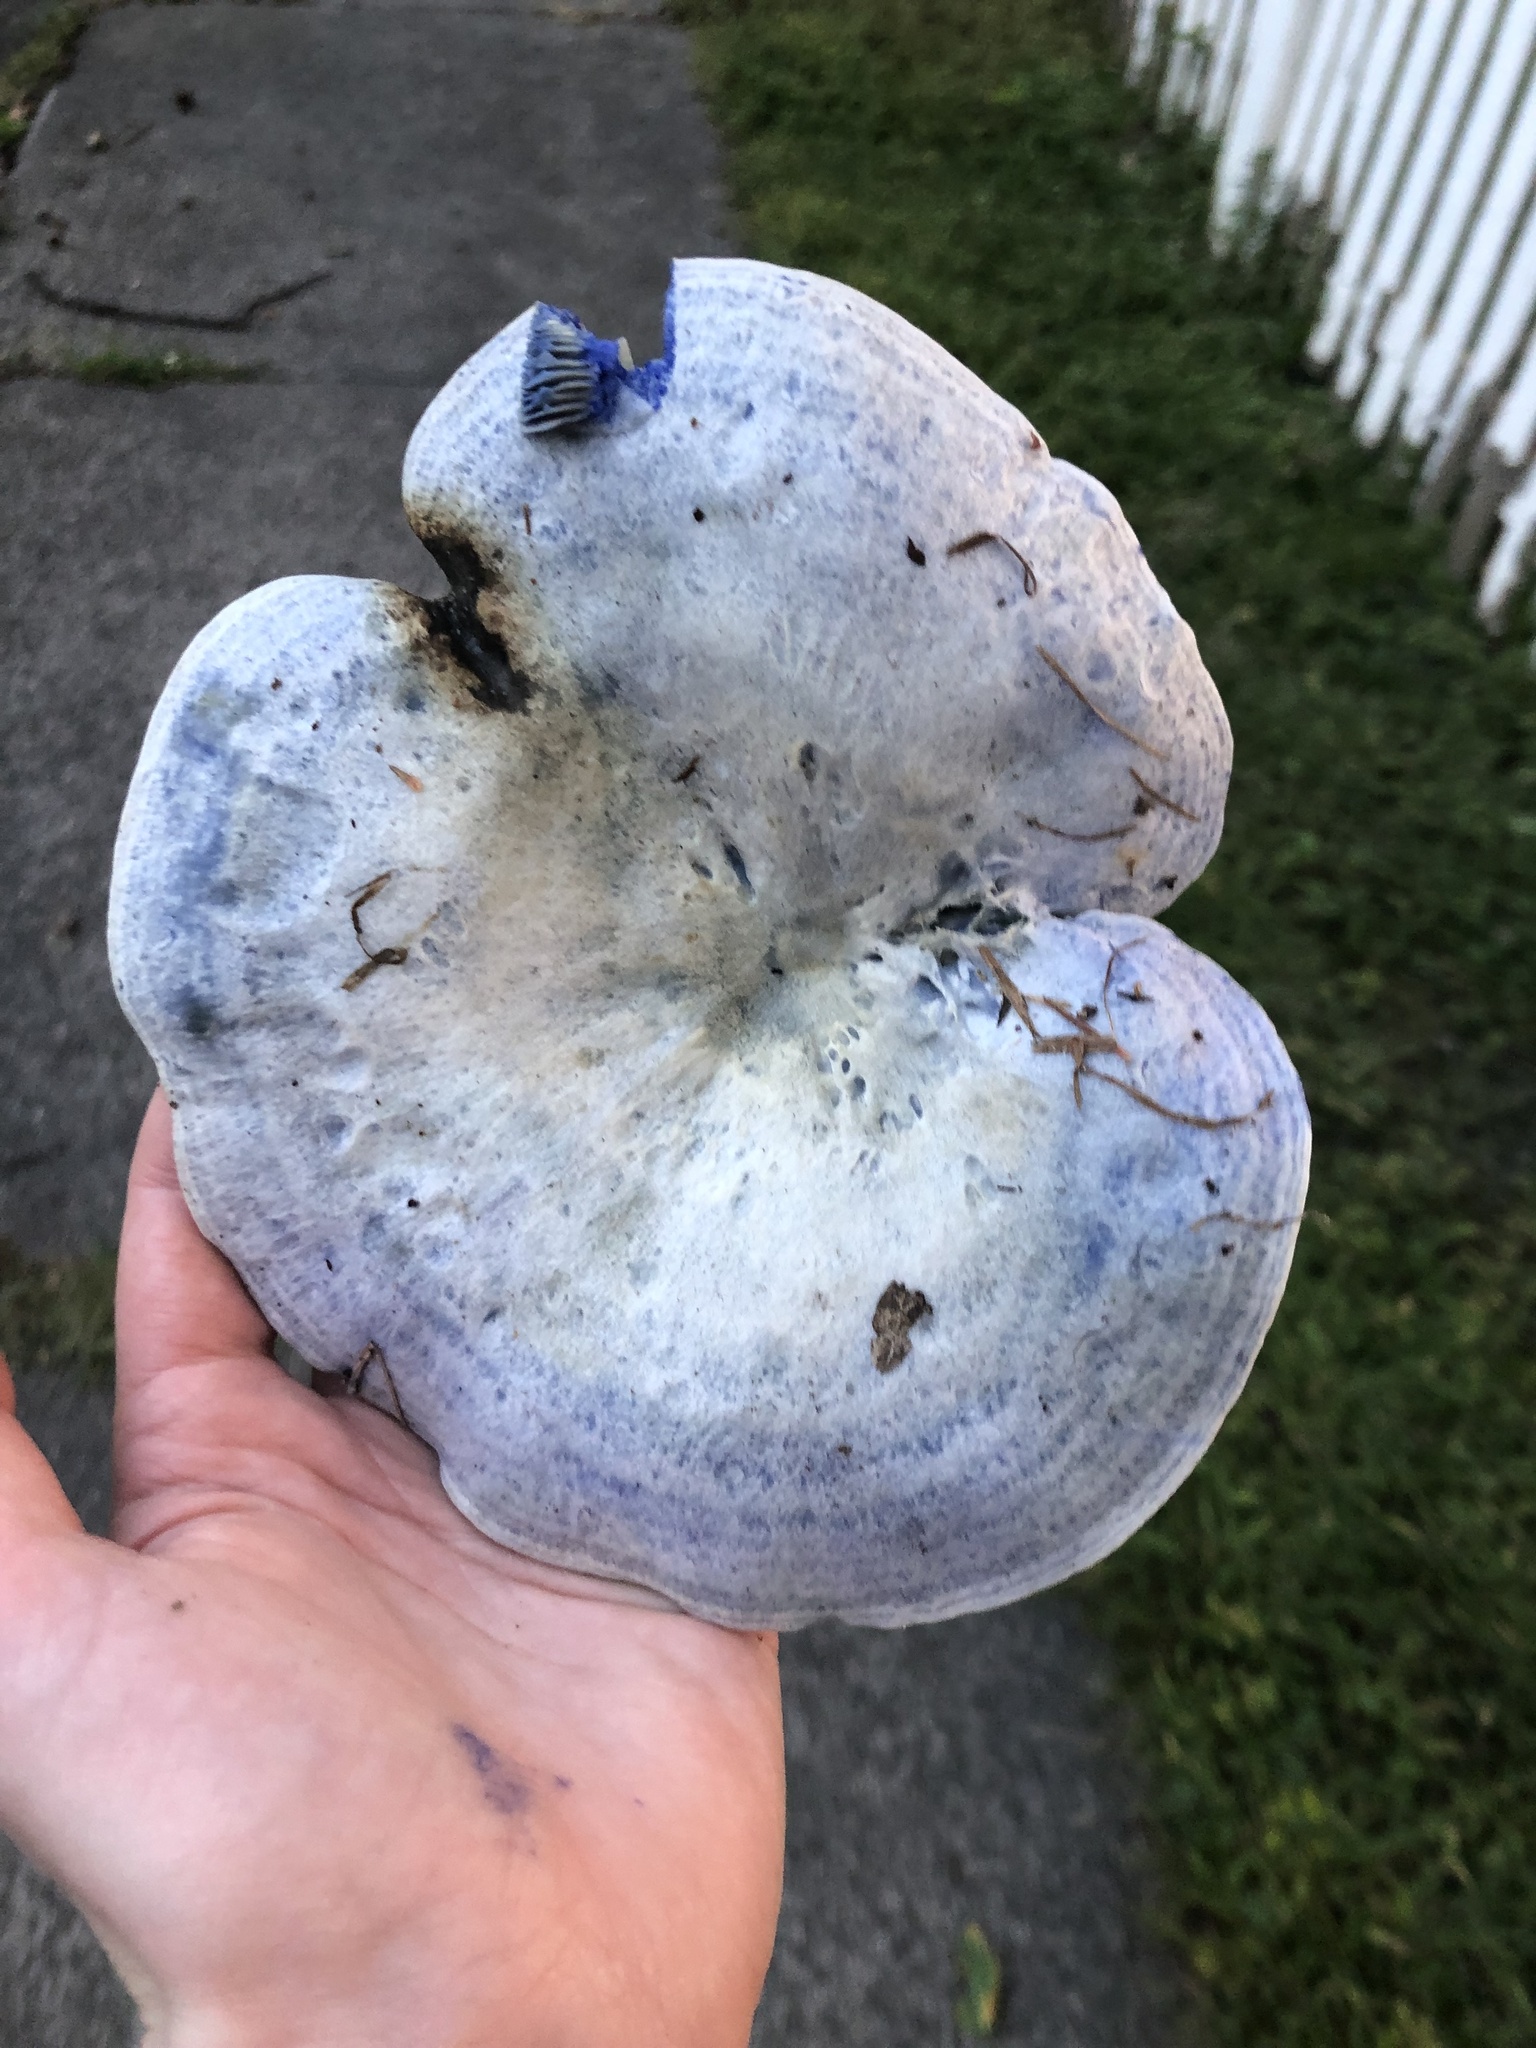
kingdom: Fungi
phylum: Basidiomycota
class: Agaricomycetes
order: Russulales
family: Russulaceae
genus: Lactarius
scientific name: Lactarius indigo
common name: Indigo milk cap
